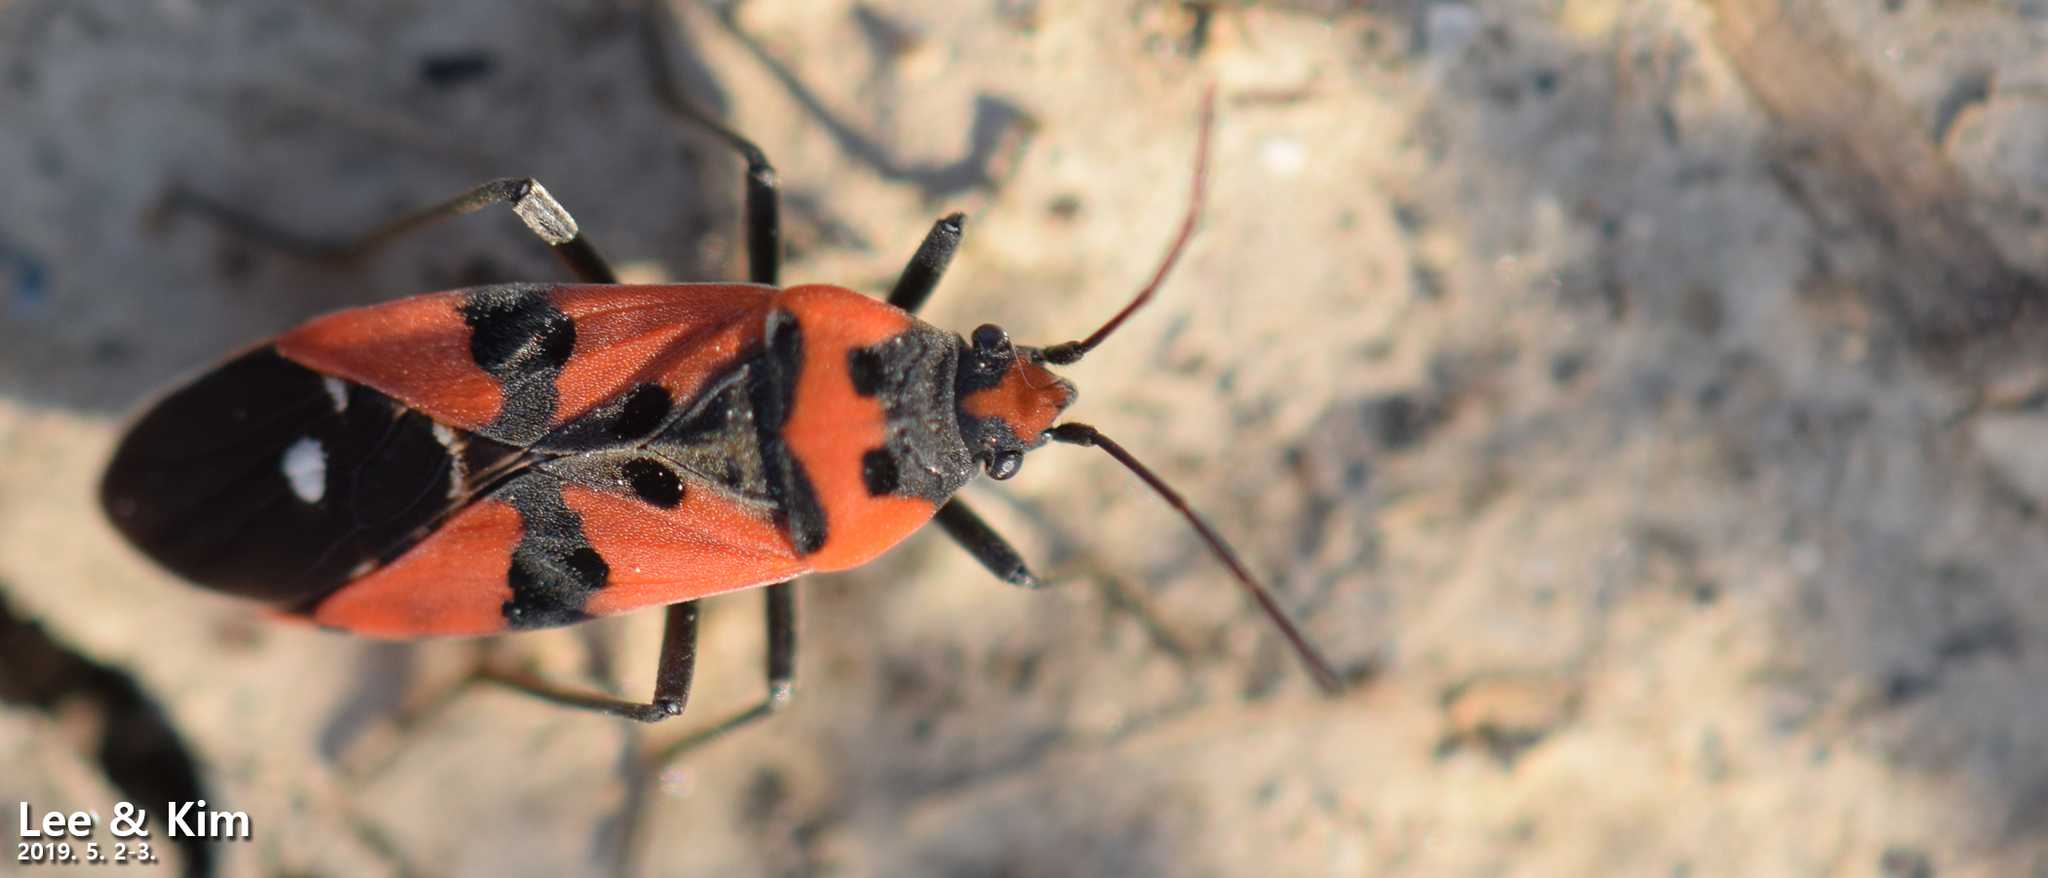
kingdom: Animalia
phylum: Arthropoda
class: Insecta
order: Hemiptera
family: Lygaeidae
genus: Lygaeus
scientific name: Lygaeus equestris
